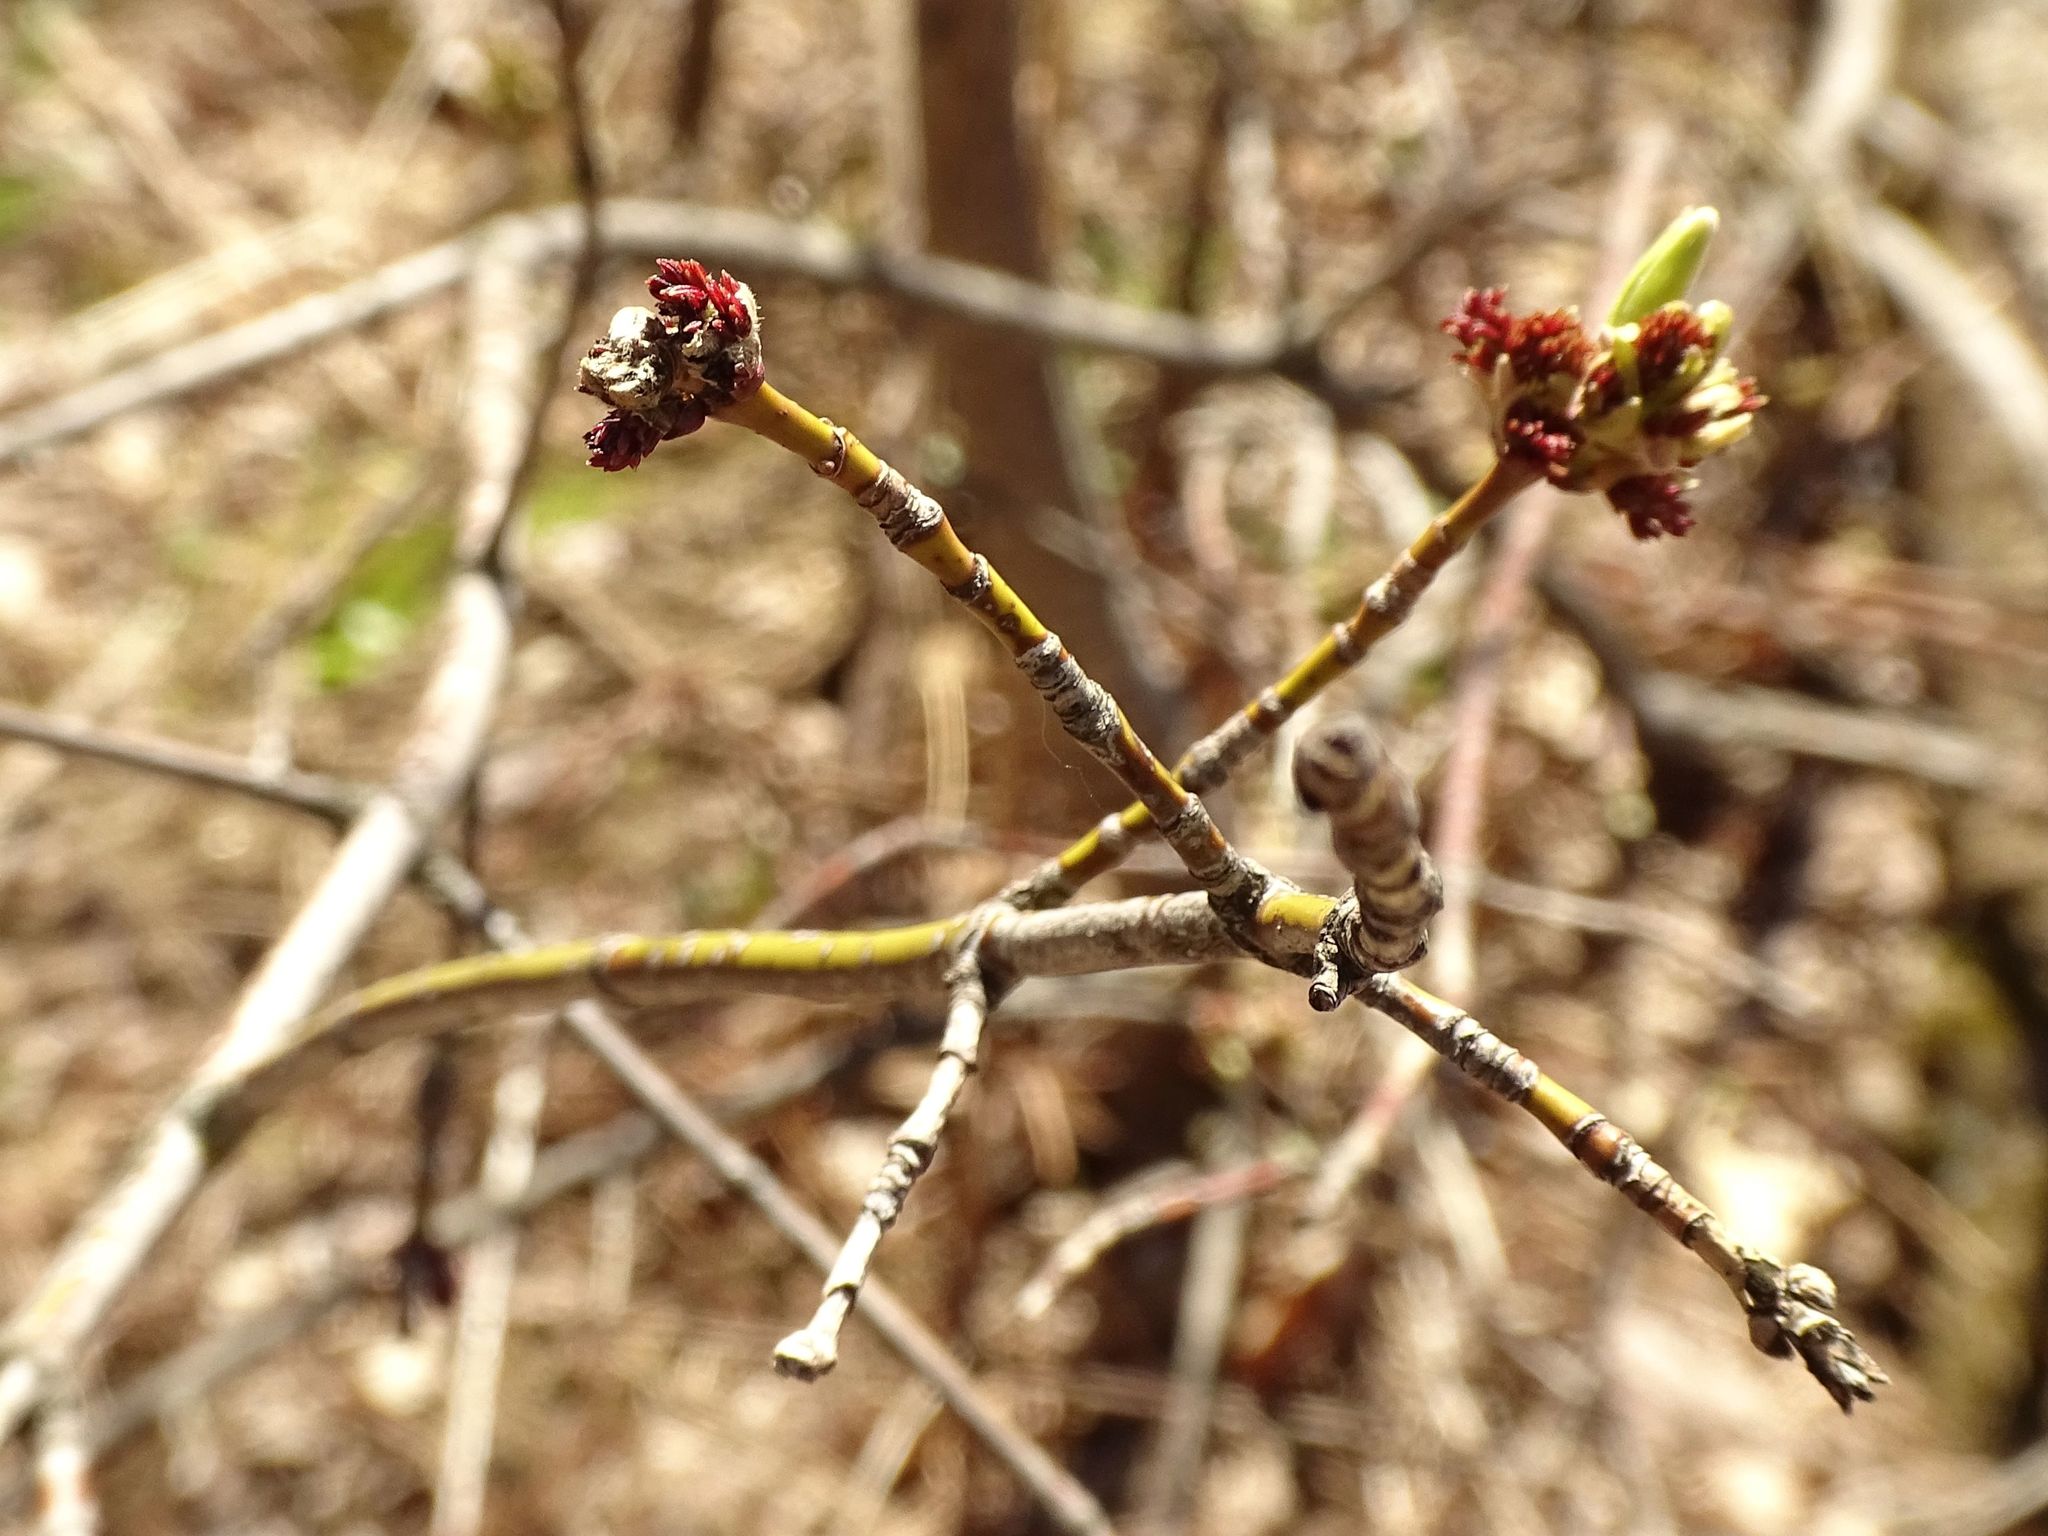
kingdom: Plantae
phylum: Tracheophyta
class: Magnoliopsida
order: Sapindales
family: Sapindaceae
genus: Acer
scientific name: Acer negundo
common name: Ashleaf maple
